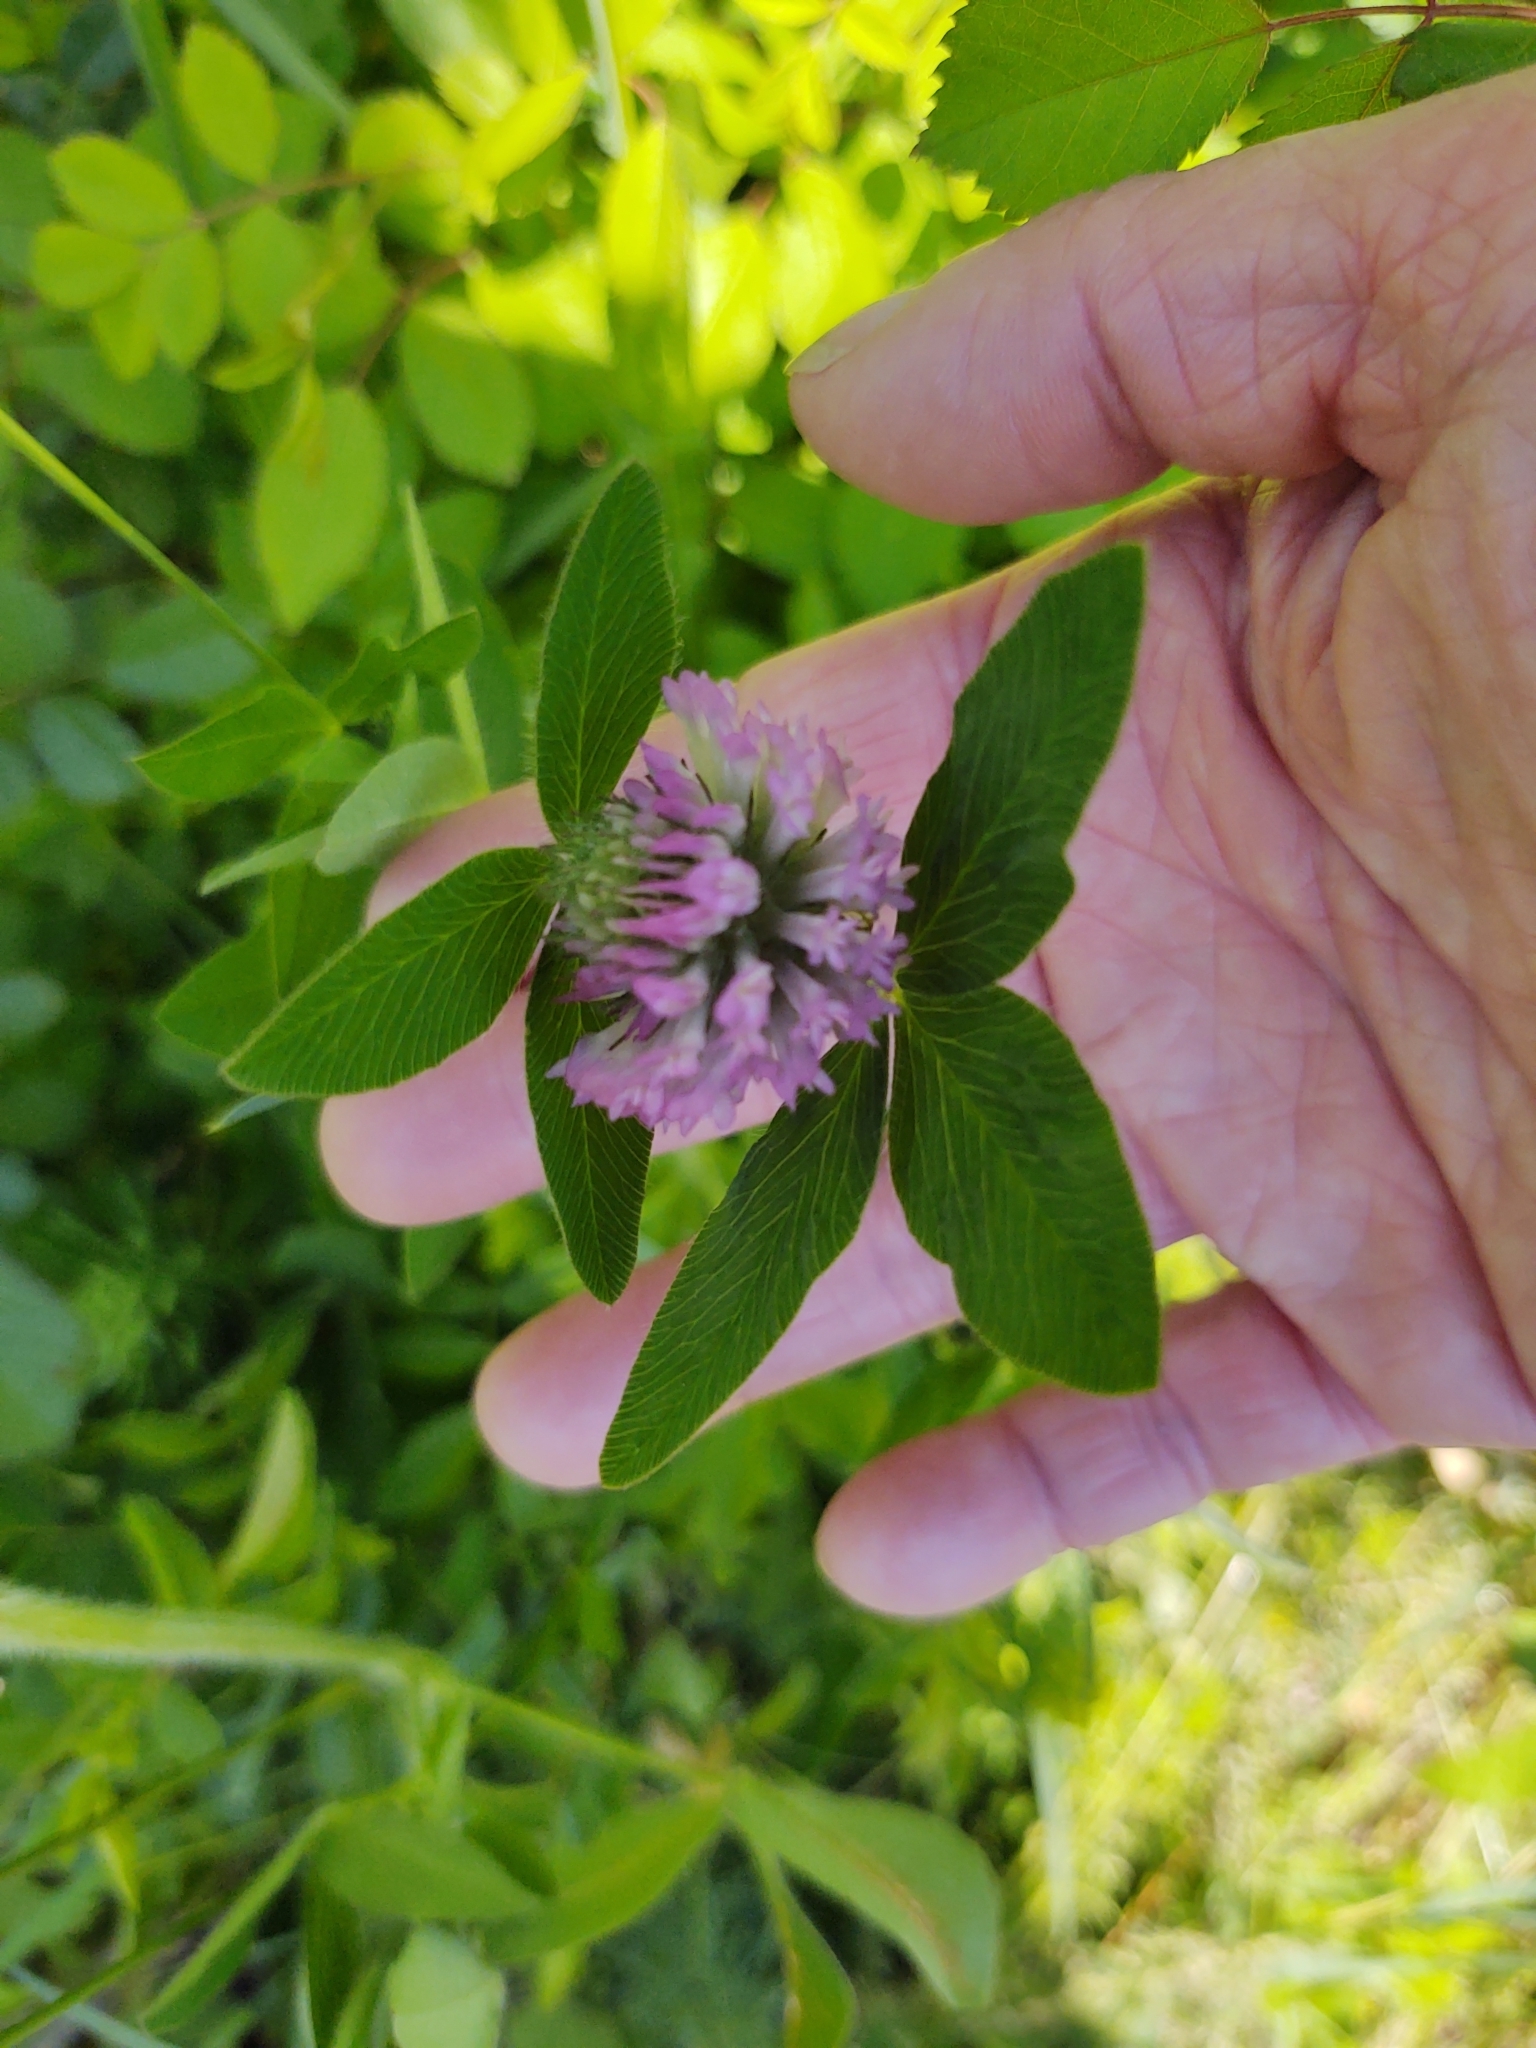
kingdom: Plantae
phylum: Tracheophyta
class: Magnoliopsida
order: Fabales
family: Fabaceae
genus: Trifolium
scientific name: Trifolium pratense
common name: Red clover
